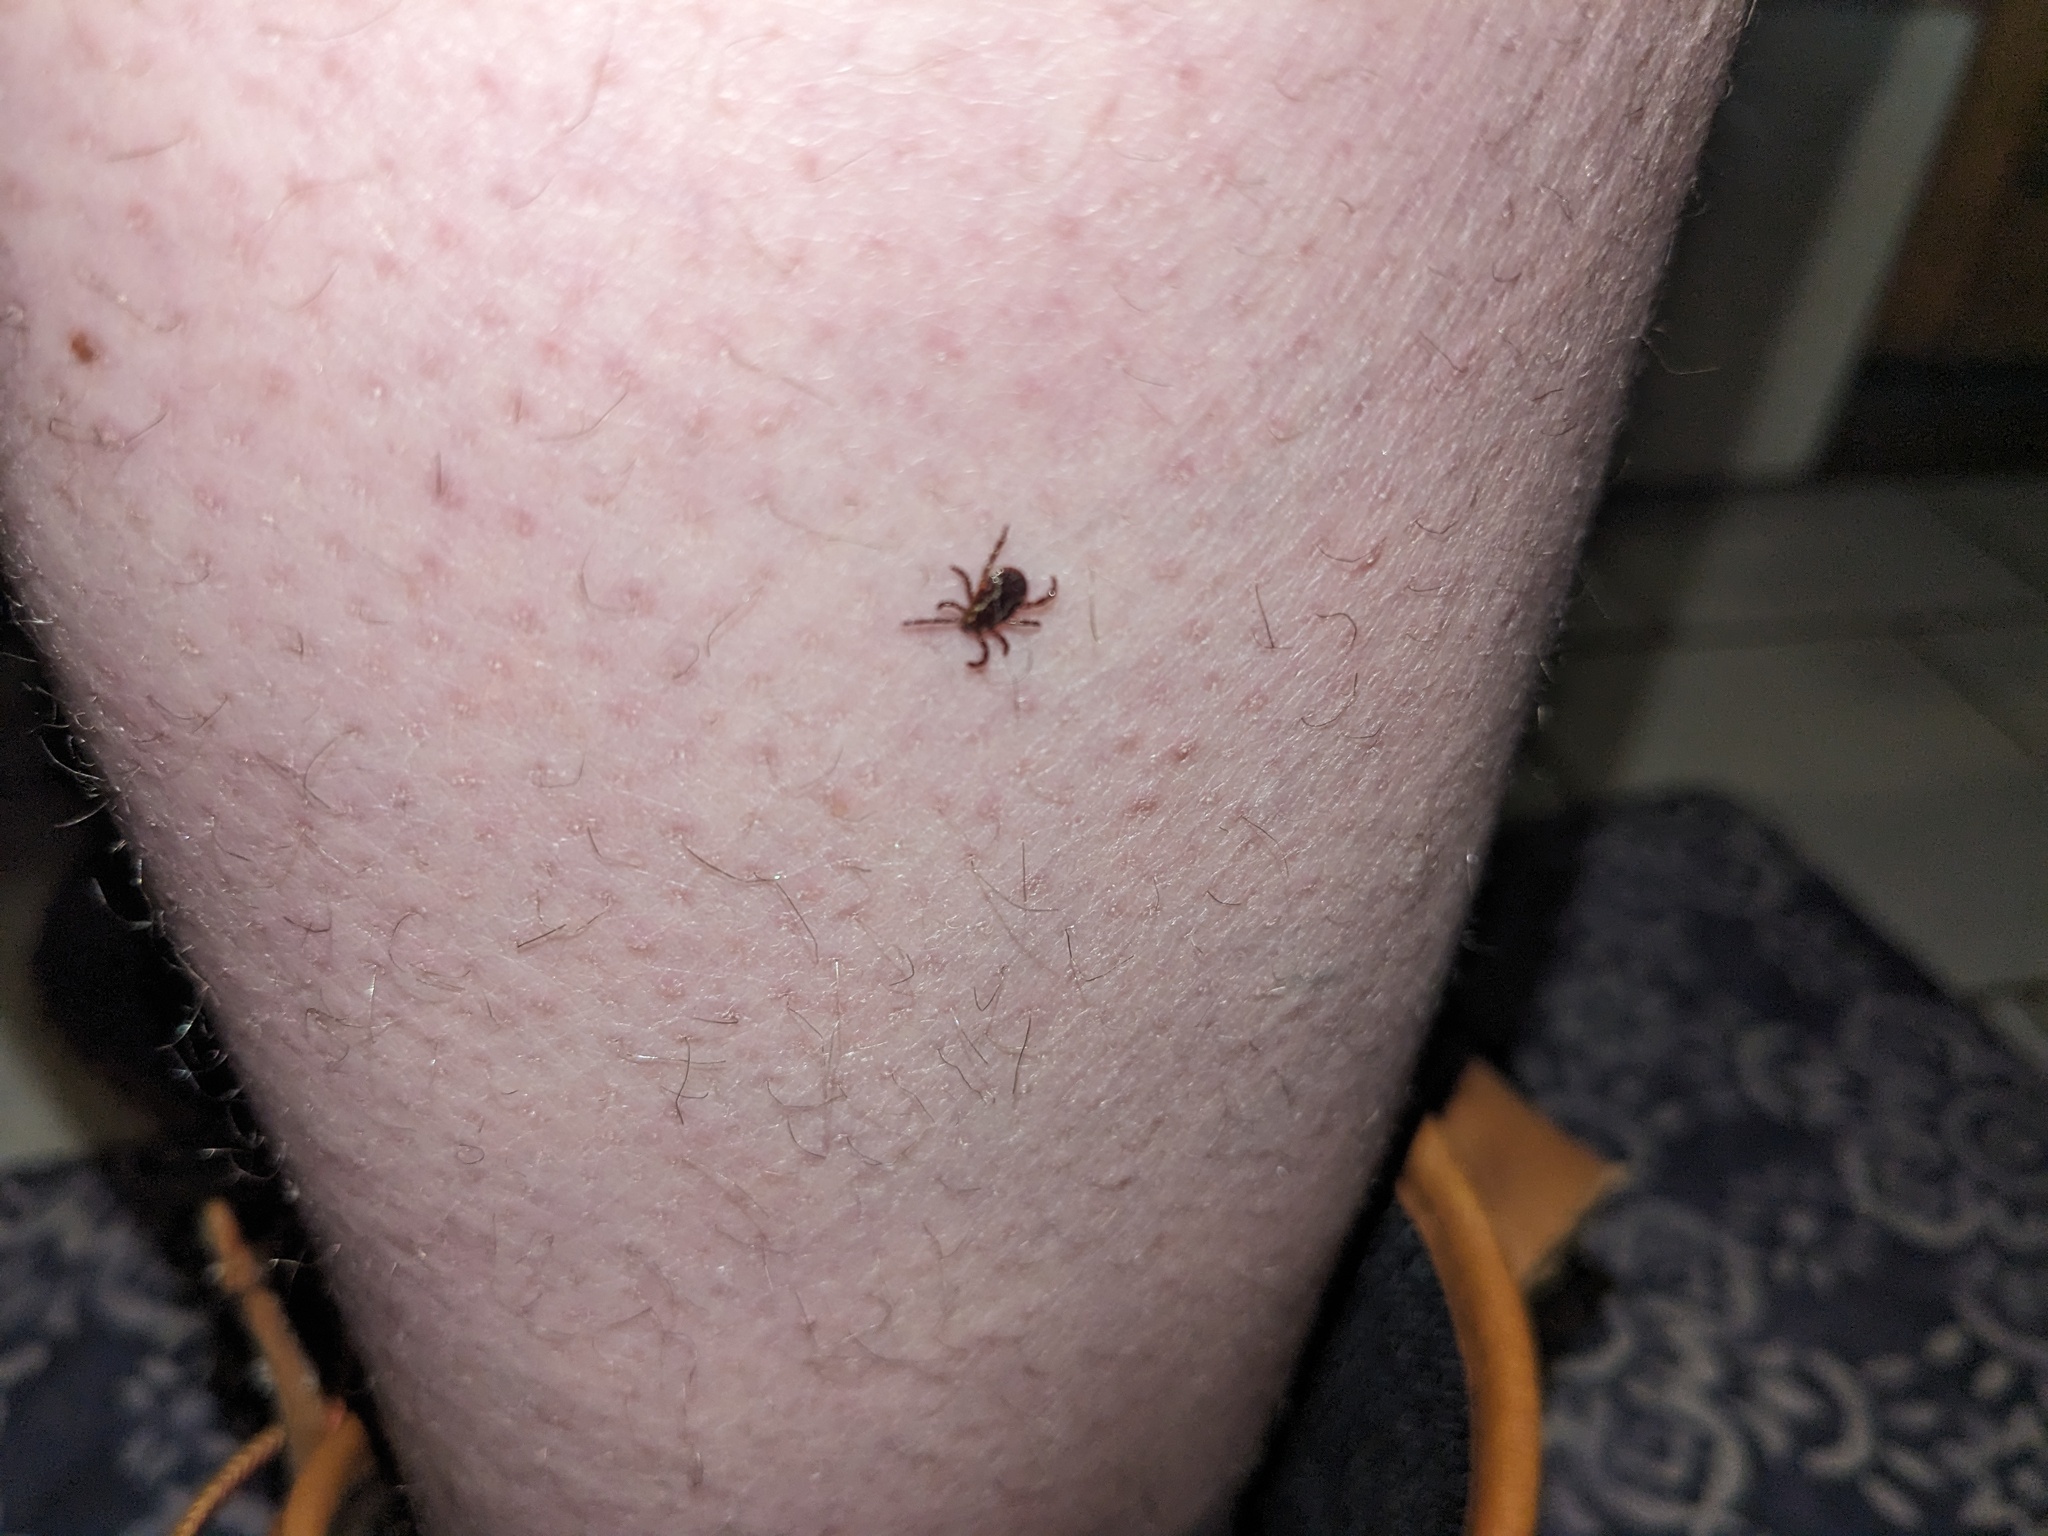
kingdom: Animalia
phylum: Arthropoda
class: Arachnida
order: Ixodida
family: Ixodidae
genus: Dermacentor
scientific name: Dermacentor variabilis
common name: American dog tick
